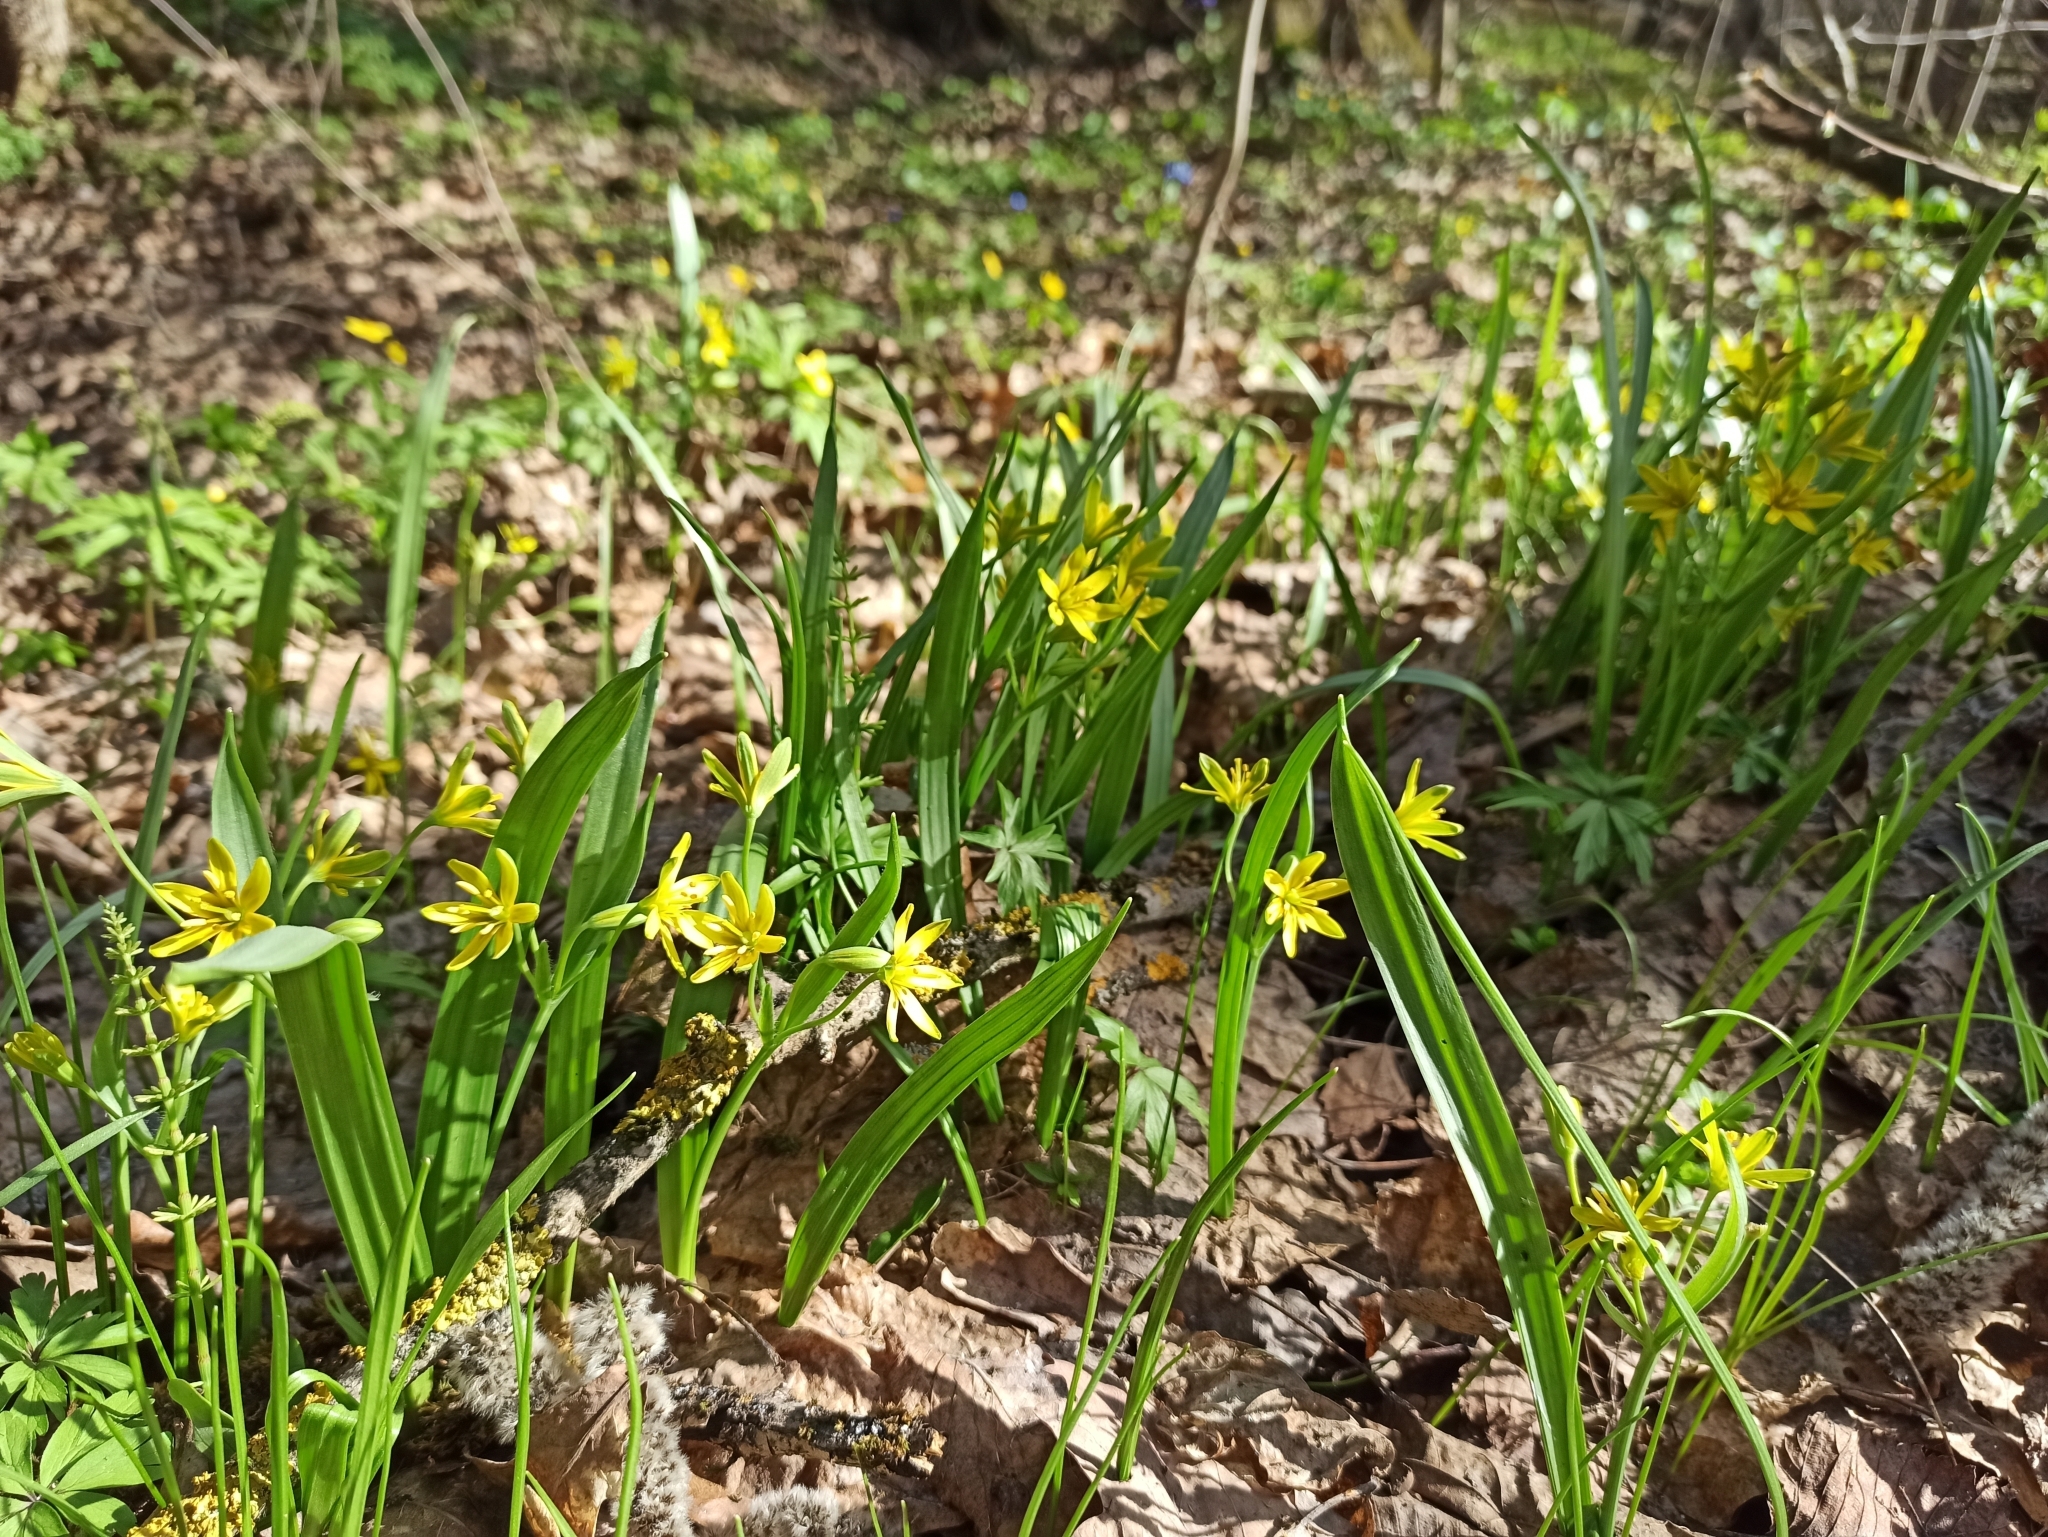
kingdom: Plantae
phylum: Tracheophyta
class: Liliopsida
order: Liliales
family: Liliaceae
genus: Gagea
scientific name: Gagea lutea
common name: Yellow star-of-bethlehem
